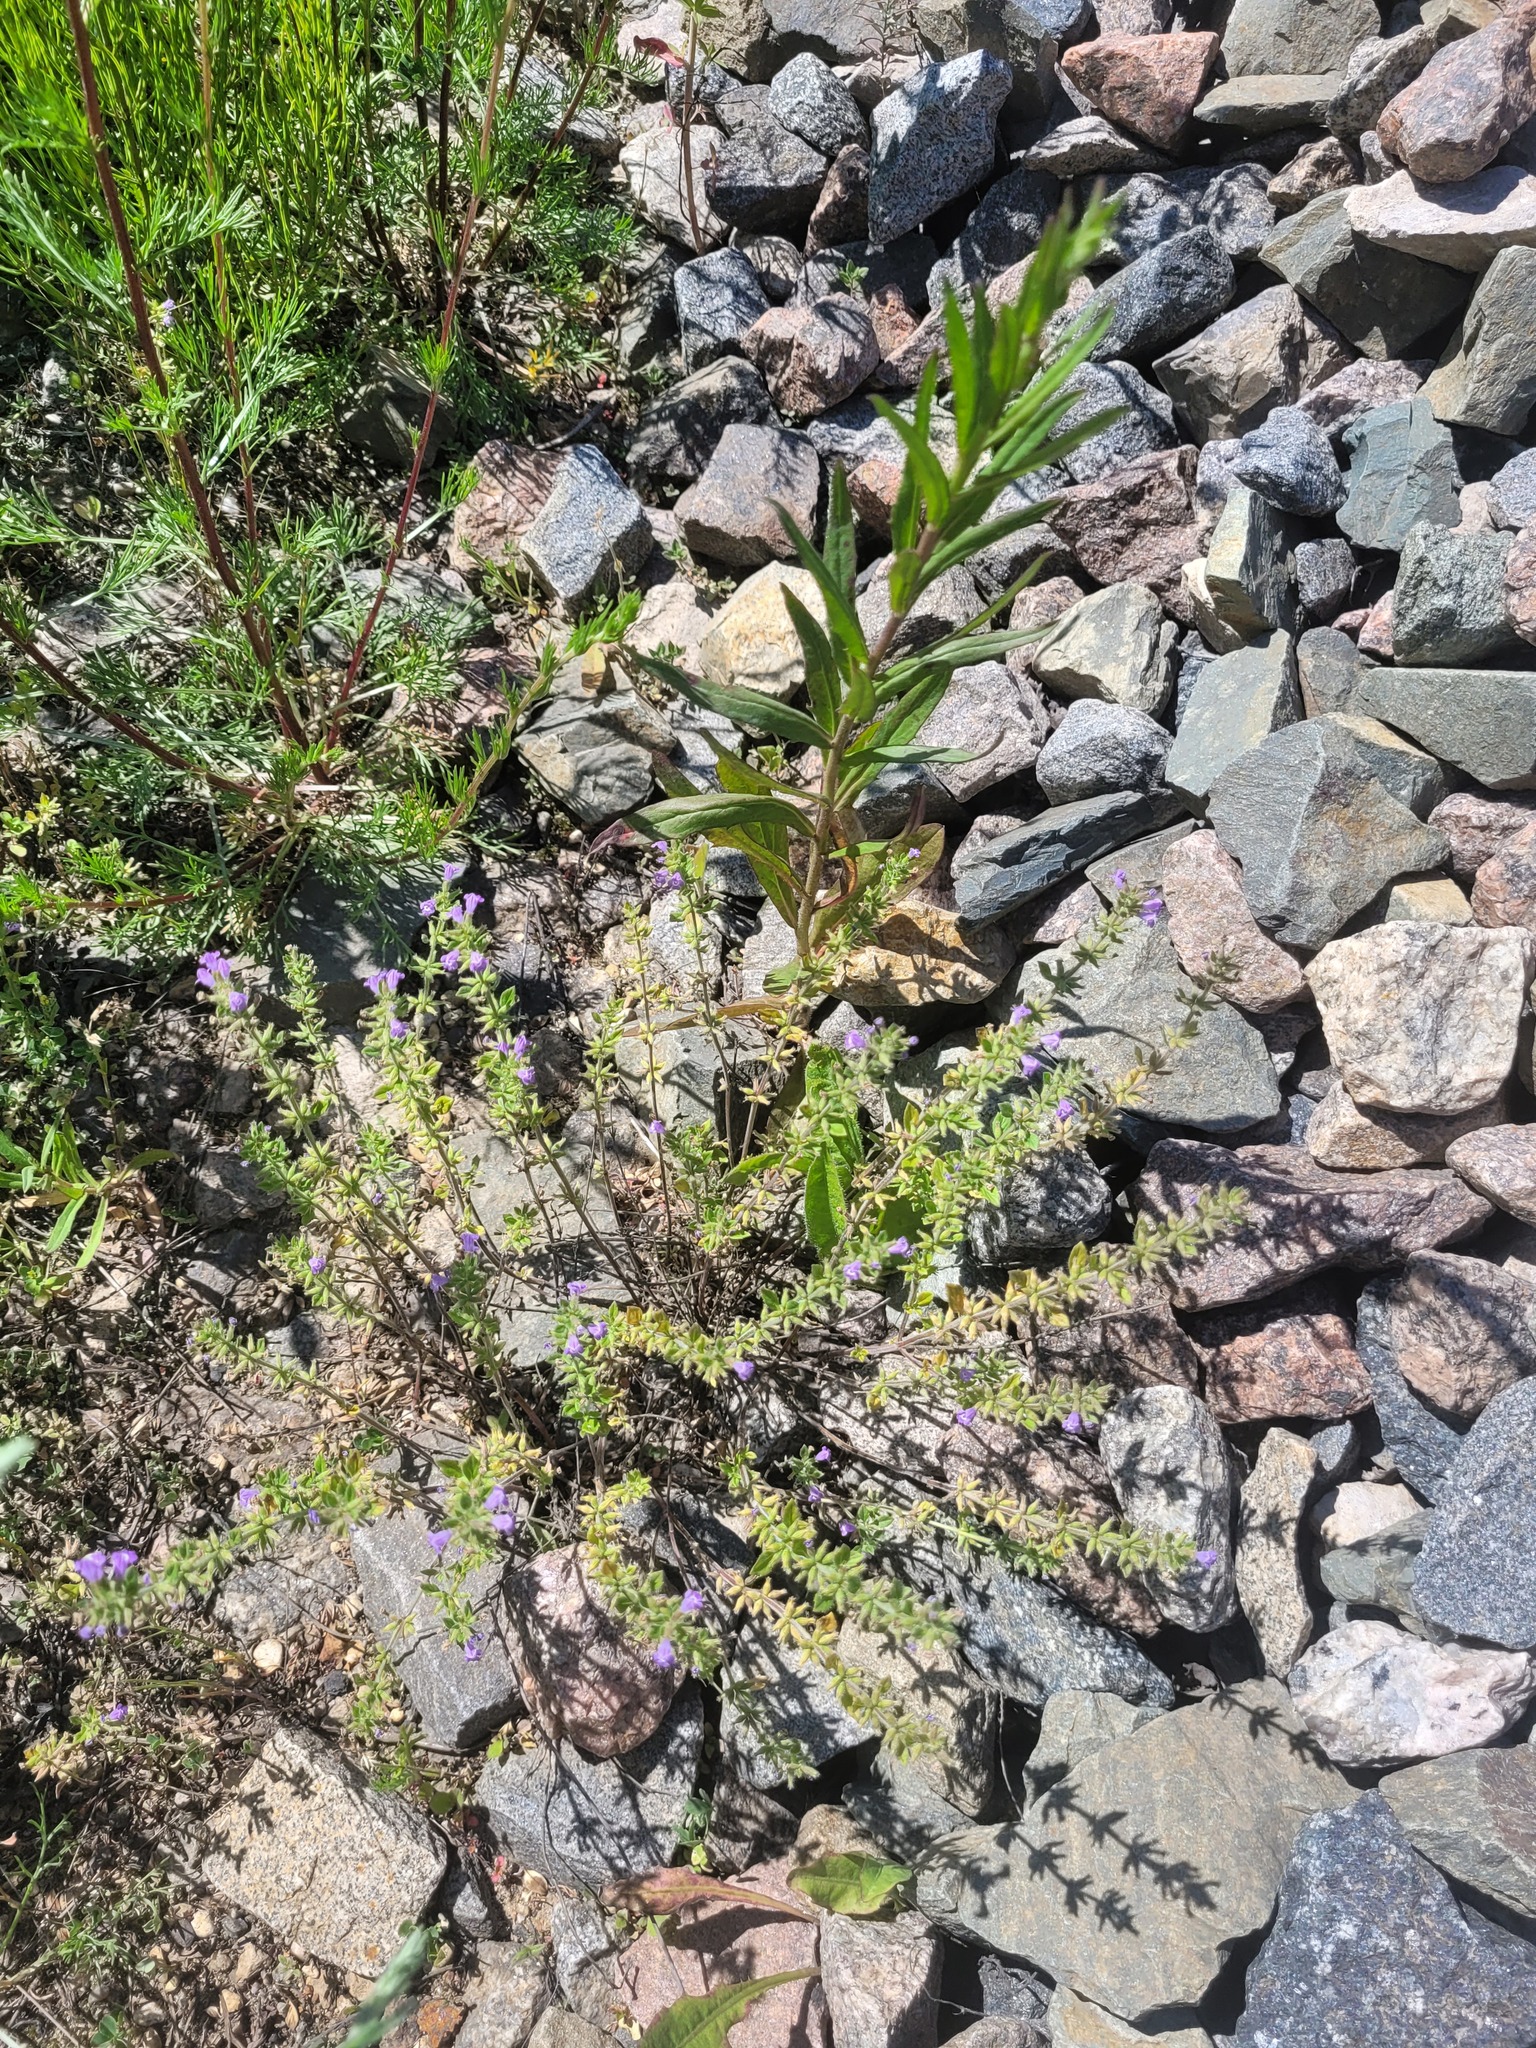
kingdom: Plantae
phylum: Tracheophyta
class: Magnoliopsida
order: Lamiales
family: Lamiaceae
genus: Clinopodium
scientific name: Clinopodium acinos
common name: Basil thyme
